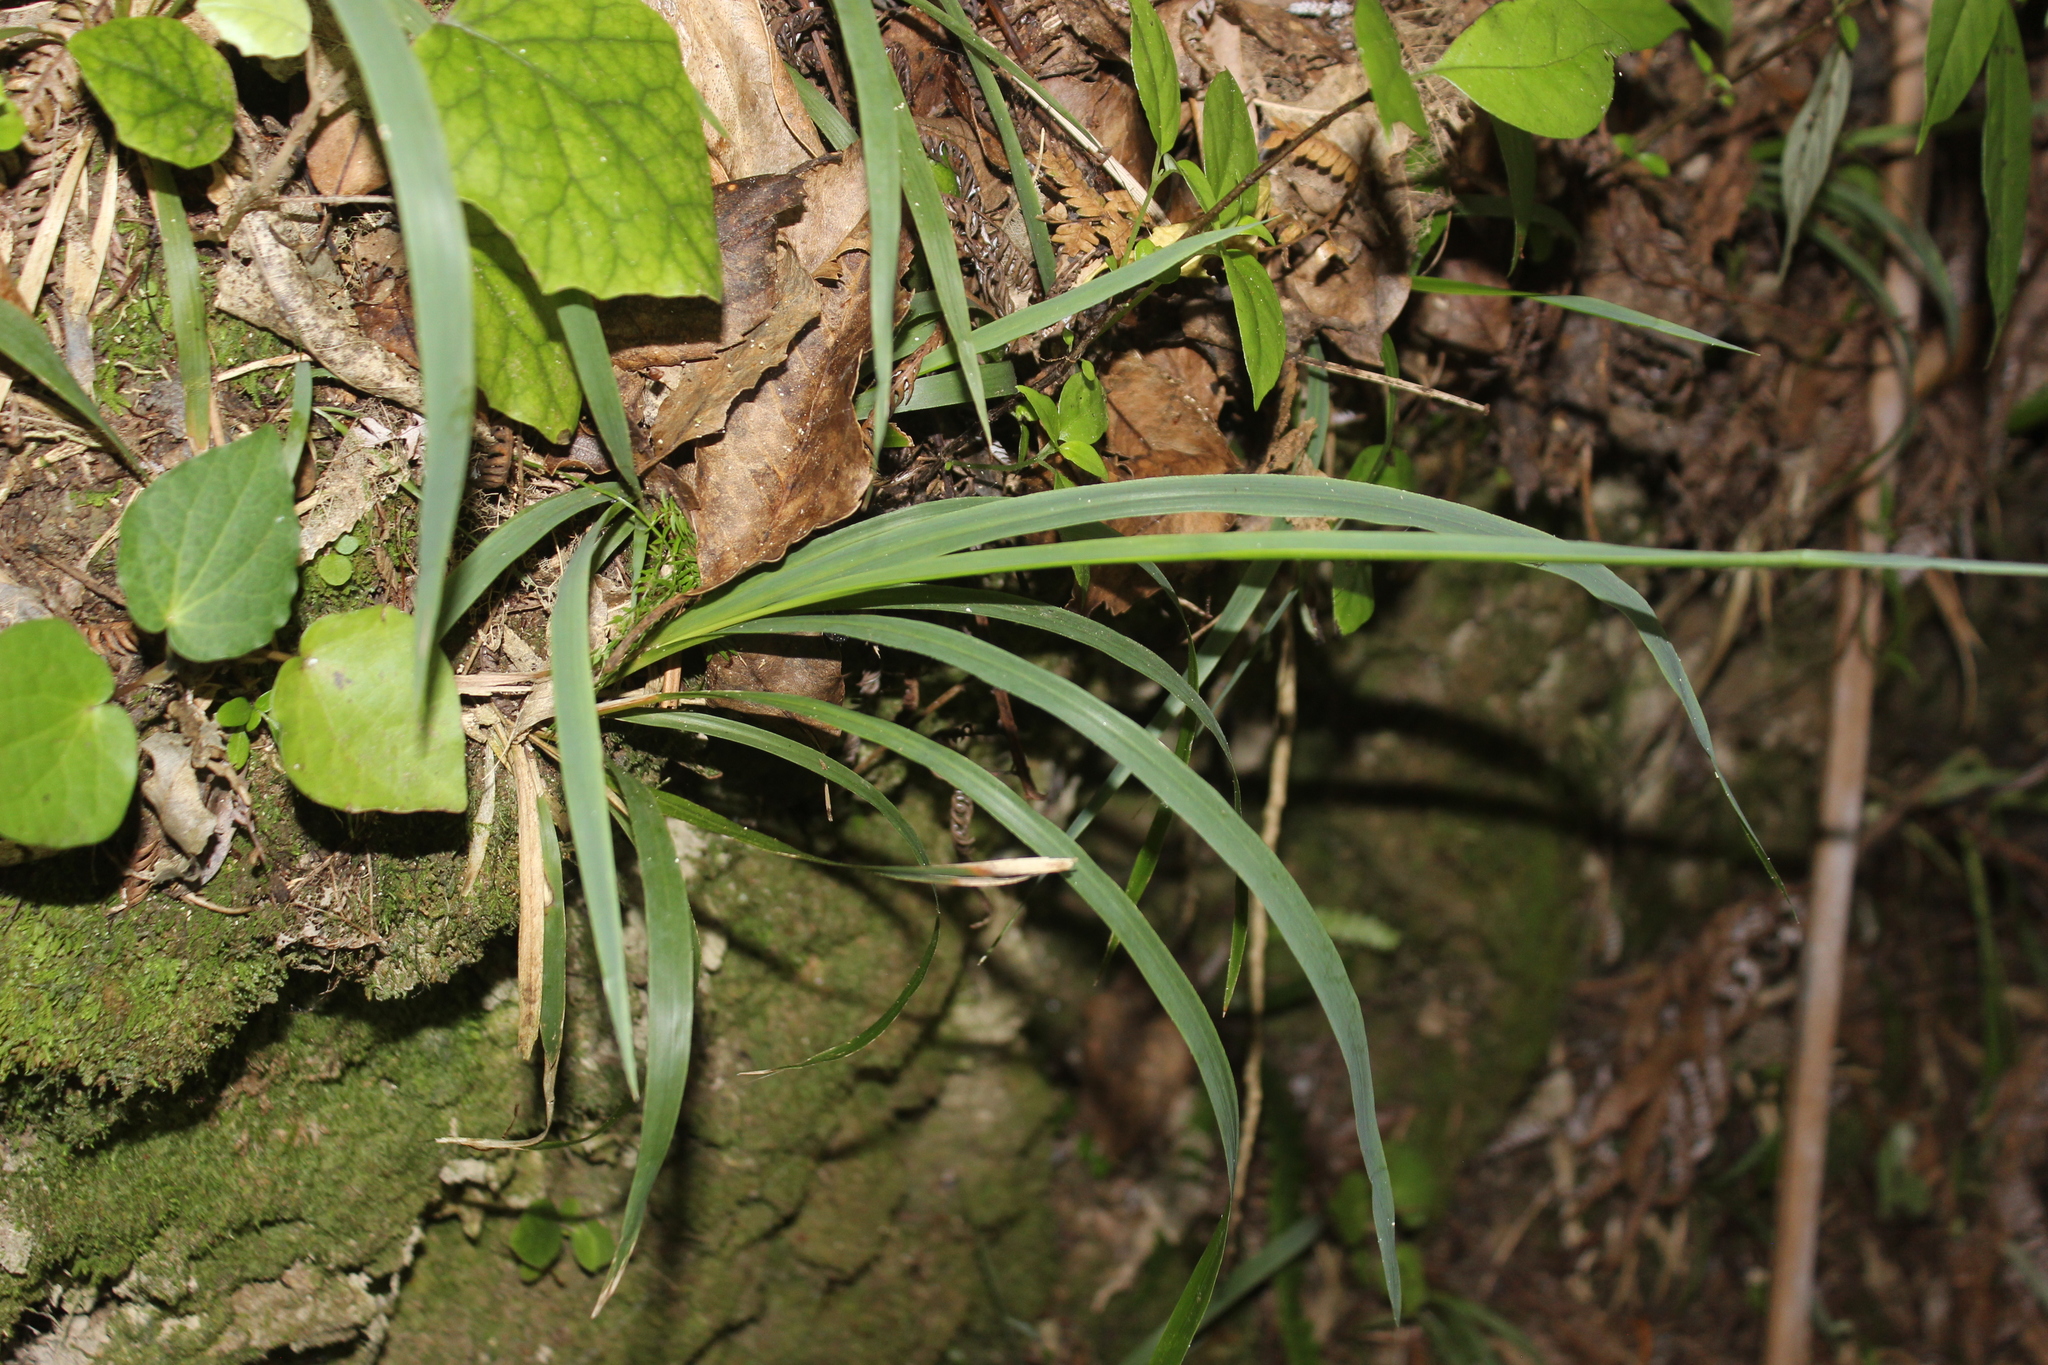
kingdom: Plantae
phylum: Tracheophyta
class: Liliopsida
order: Poales
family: Poaceae
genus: Ehrharta
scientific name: Ehrharta diplax
